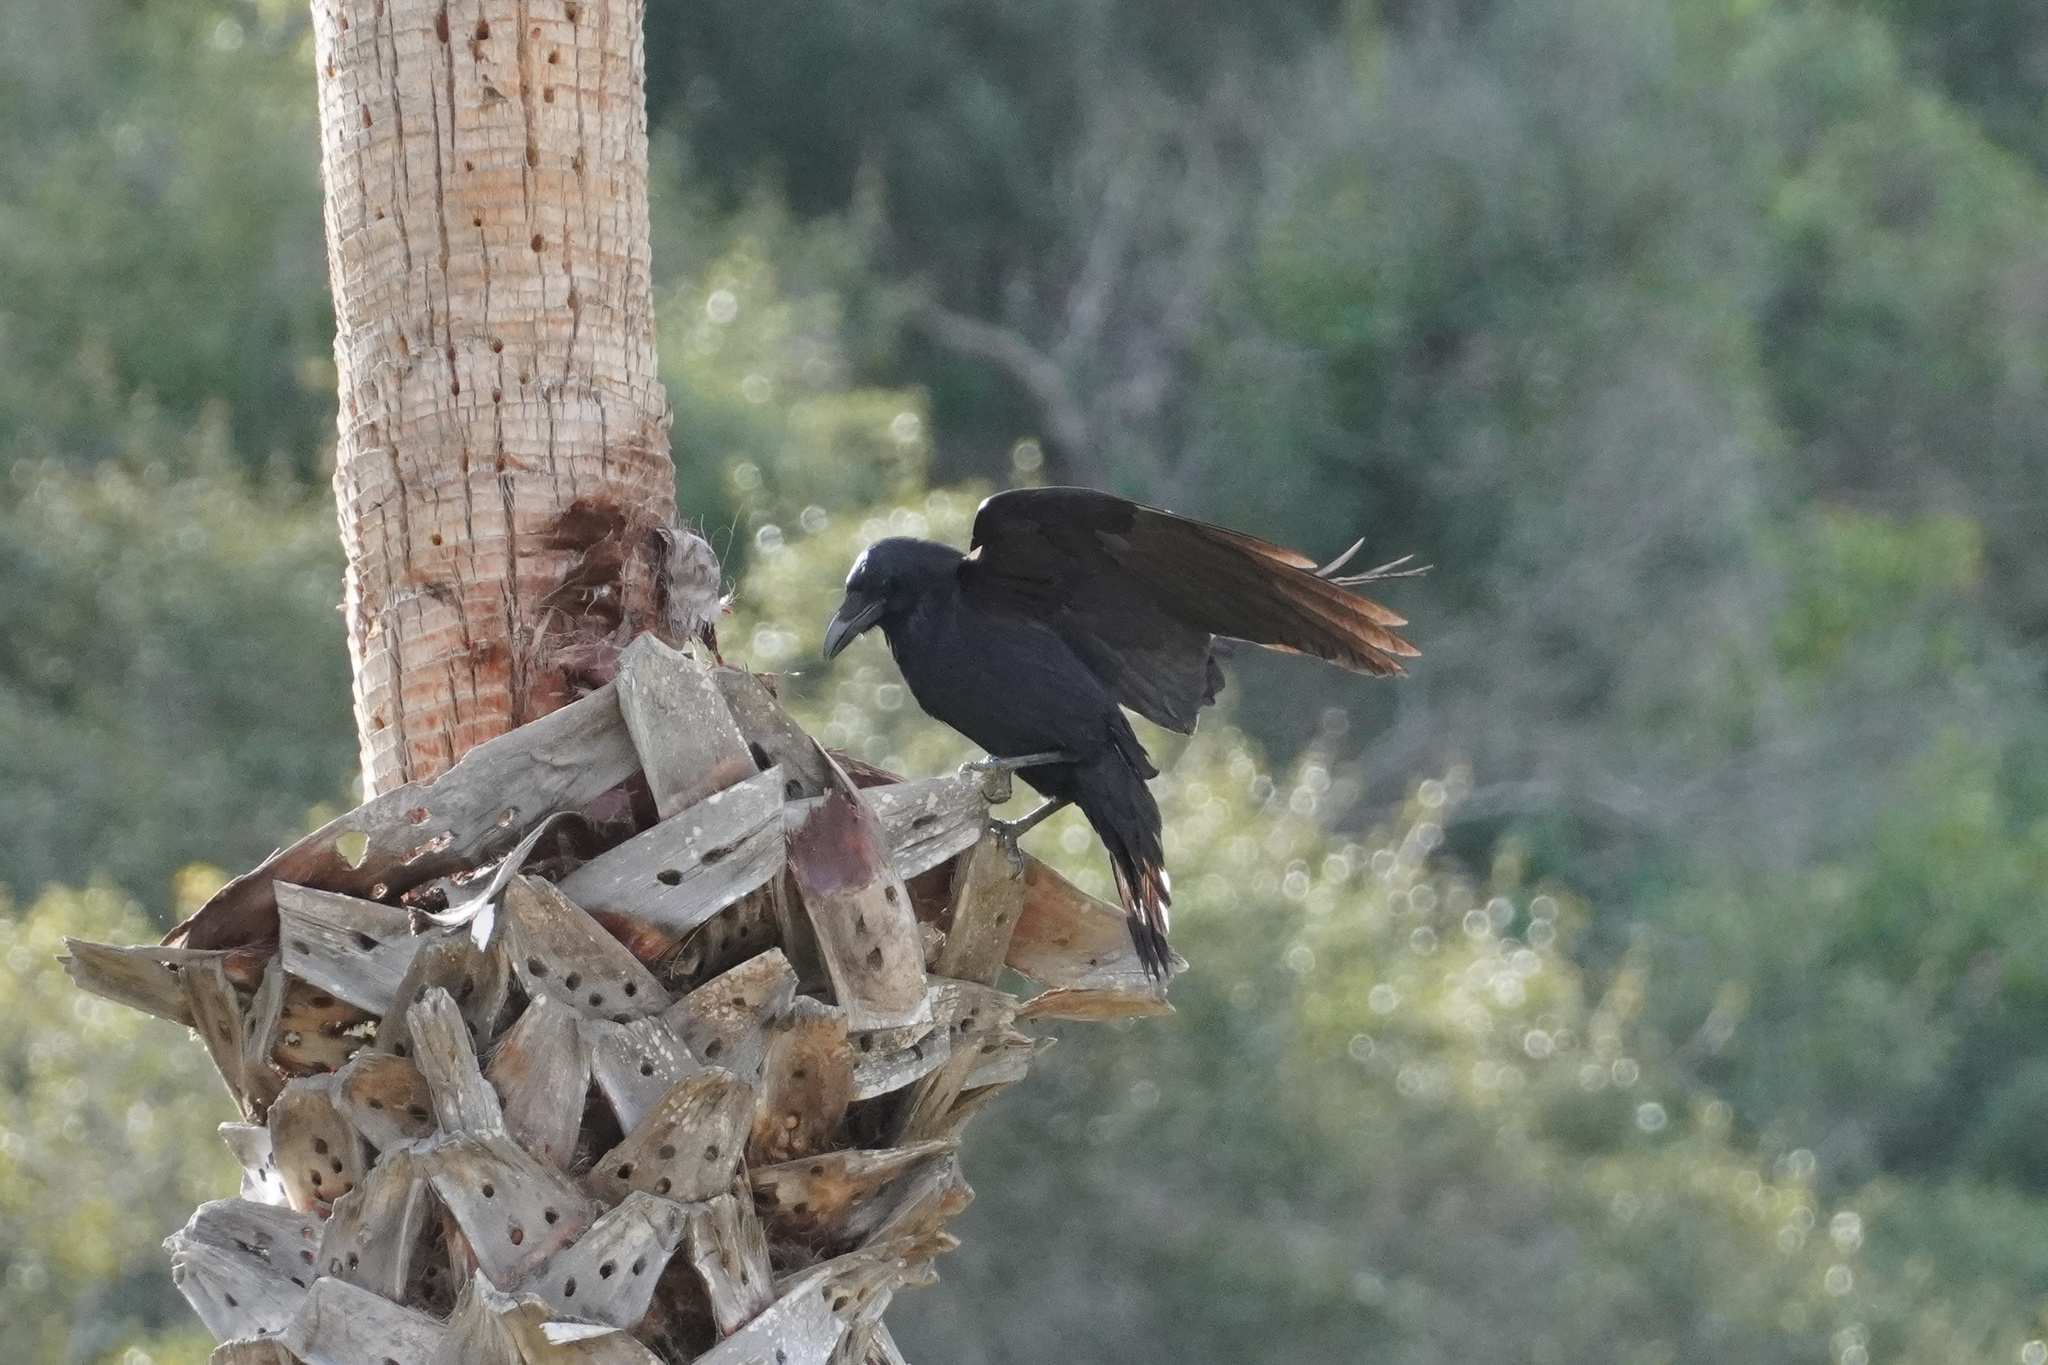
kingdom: Animalia
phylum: Chordata
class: Aves
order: Passeriformes
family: Corvidae
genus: Corvus
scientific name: Corvus corax
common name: Common raven
